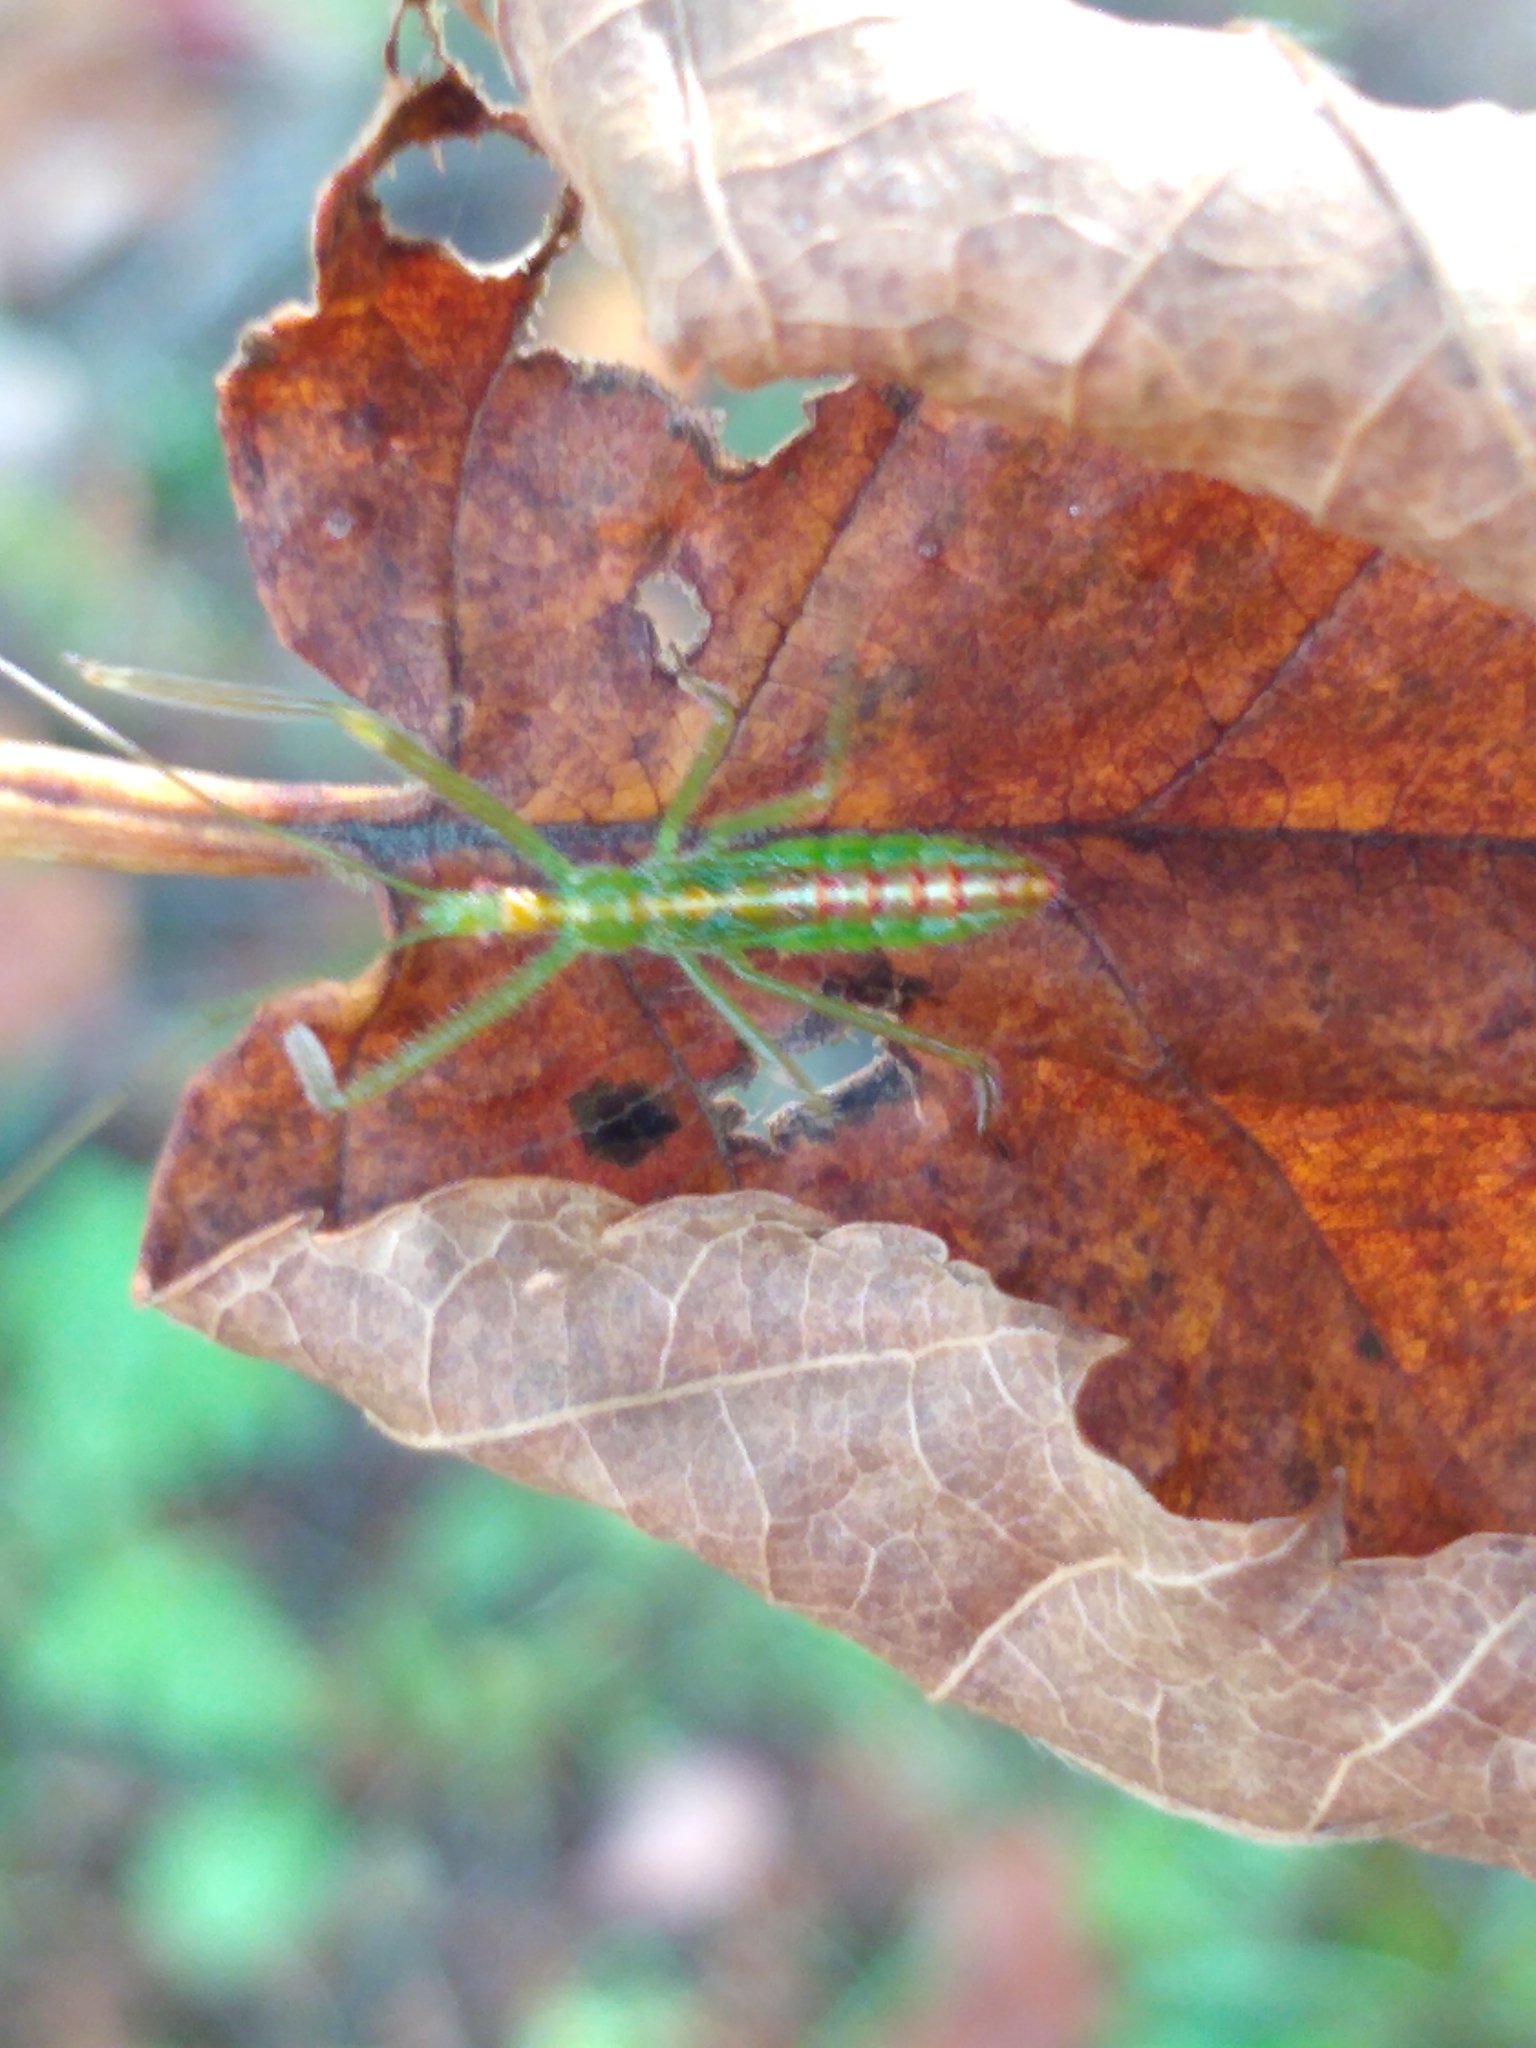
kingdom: Animalia
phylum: Arthropoda
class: Insecta
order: Hemiptera
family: Reduviidae
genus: Zelus
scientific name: Zelus luridus
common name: Pale green assassin bug
